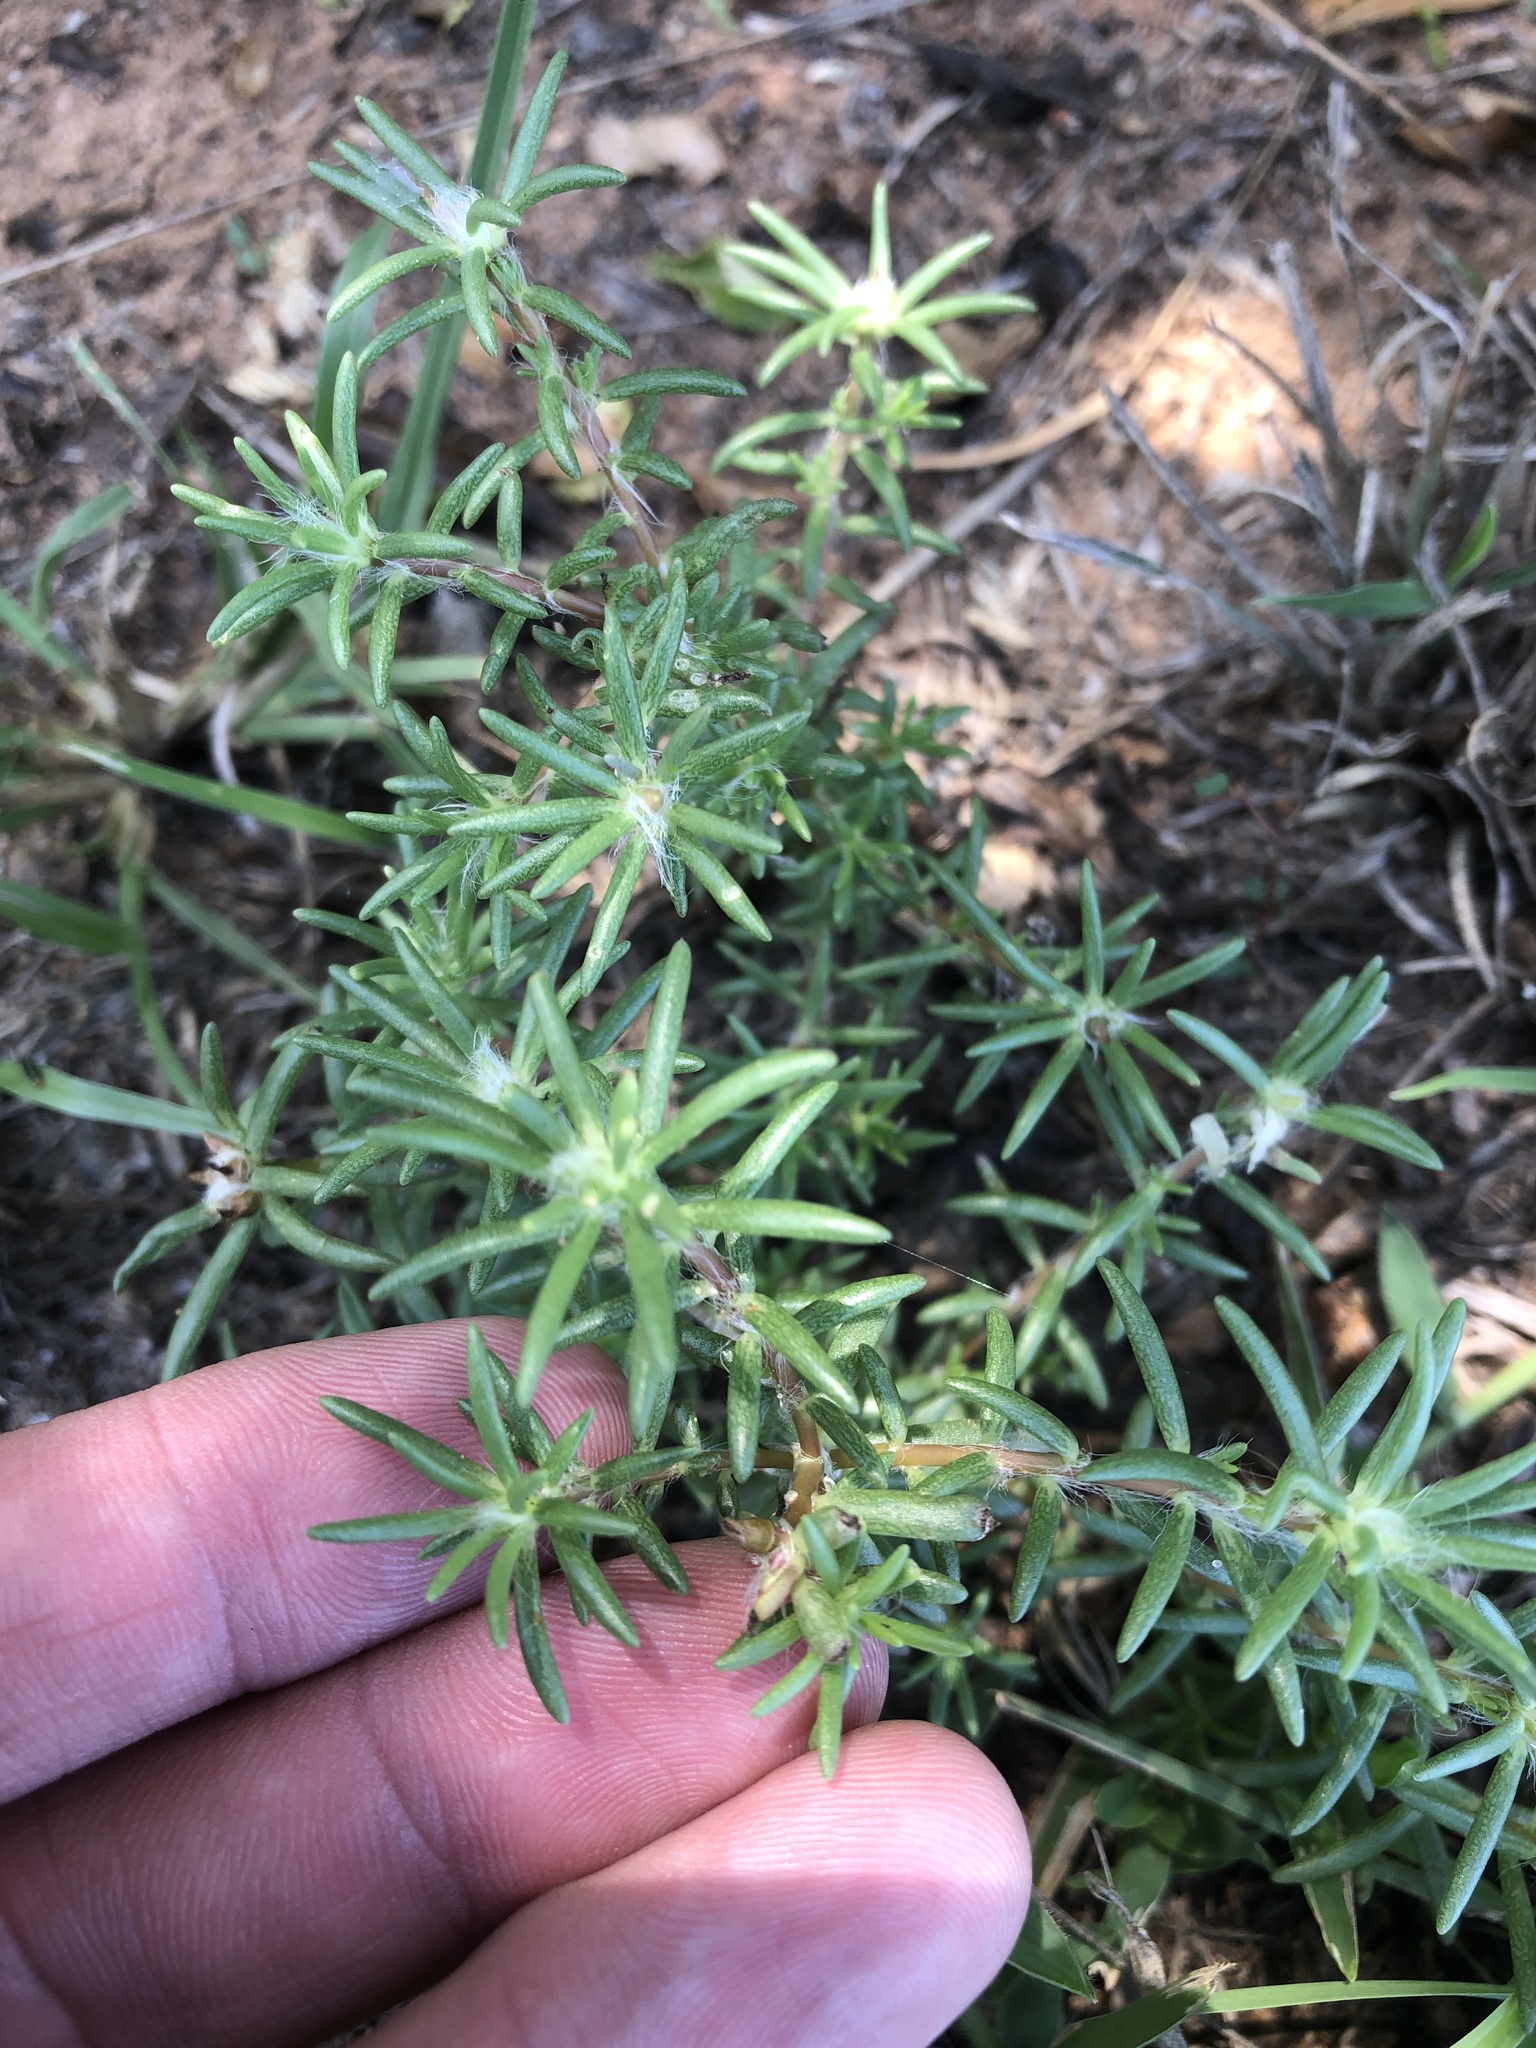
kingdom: Plantae
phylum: Tracheophyta
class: Magnoliopsida
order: Caryophyllales
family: Portulacaceae
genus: Portulaca
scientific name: Portulaca pilosa
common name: Kiss me quick
